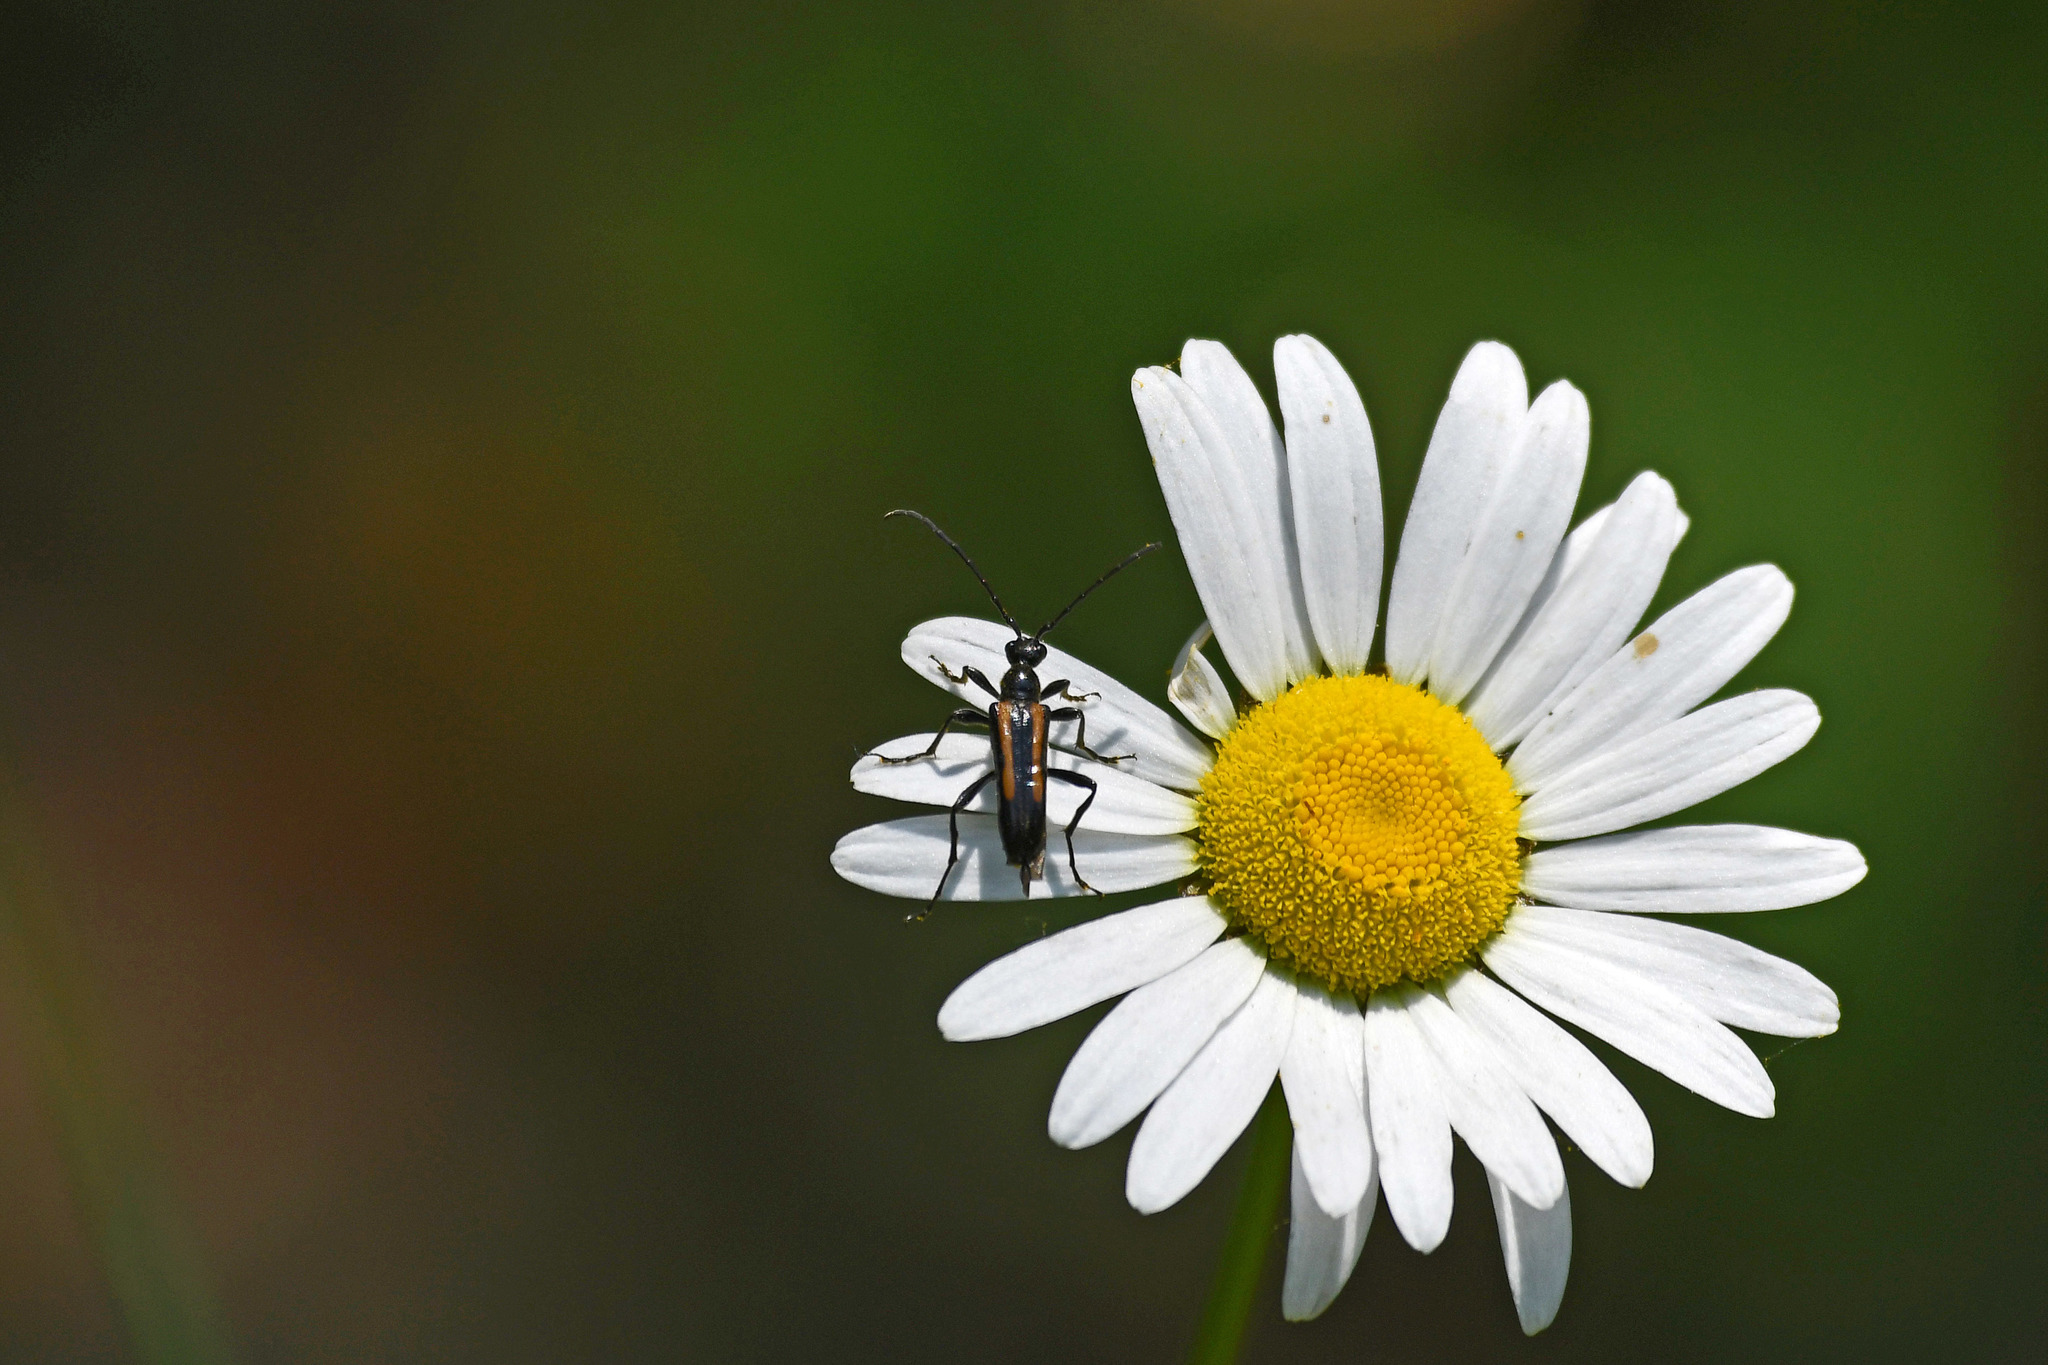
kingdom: Animalia
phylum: Arthropoda
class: Insecta
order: Coleoptera
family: Cerambycidae
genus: Strangalepta
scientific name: Strangalepta abbreviata
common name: Strangalepta flower longhorn beetle
